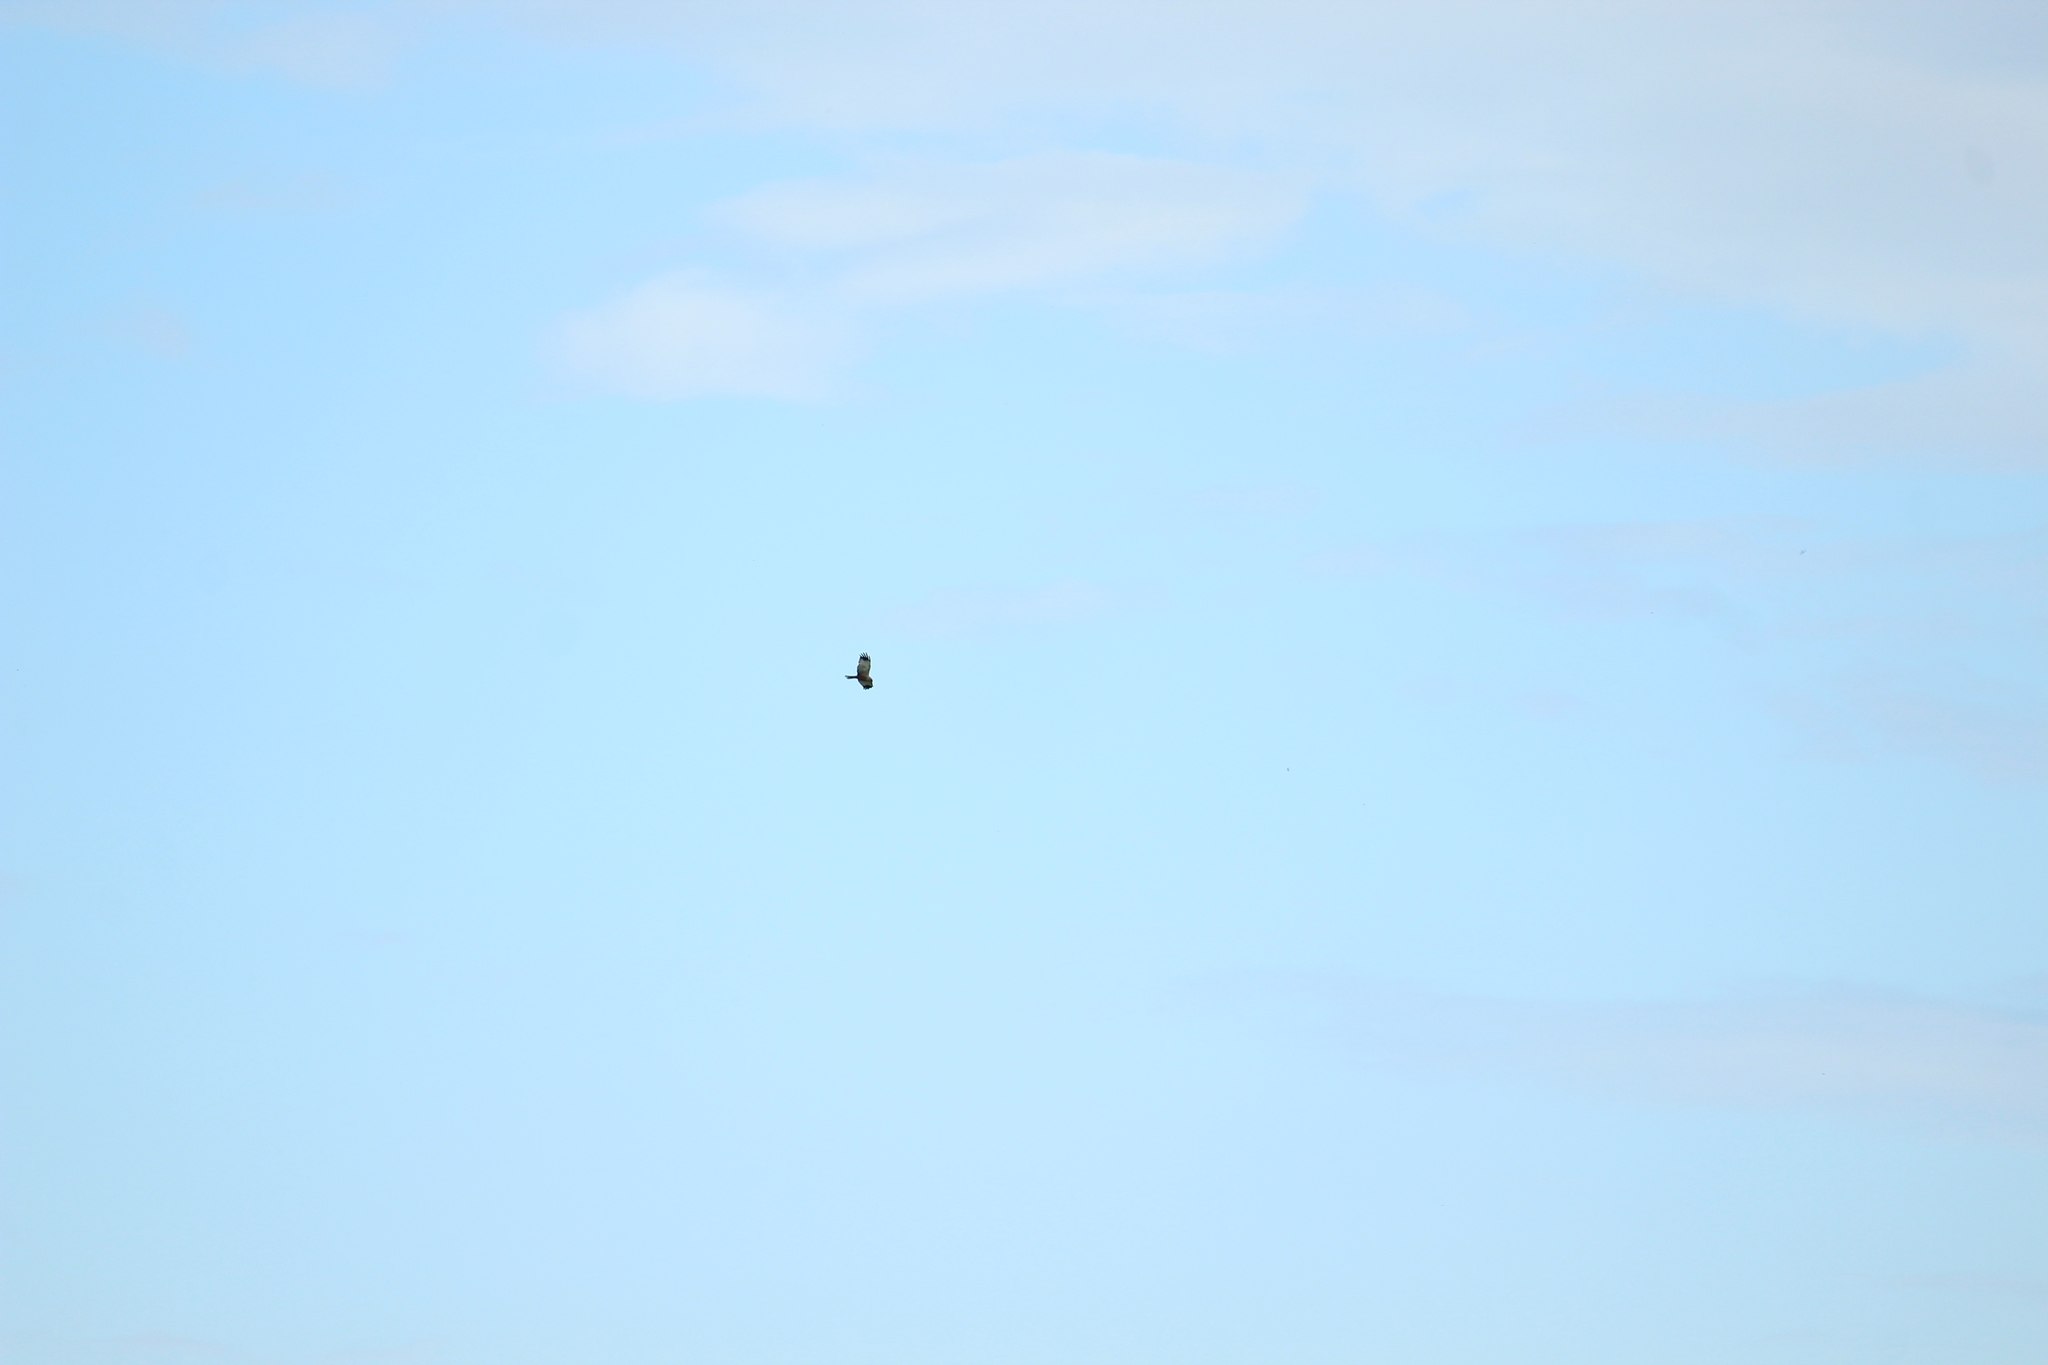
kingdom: Animalia
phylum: Chordata
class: Aves
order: Accipitriformes
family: Accipitridae
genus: Circus
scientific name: Circus aeruginosus
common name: Western marsh harrier
